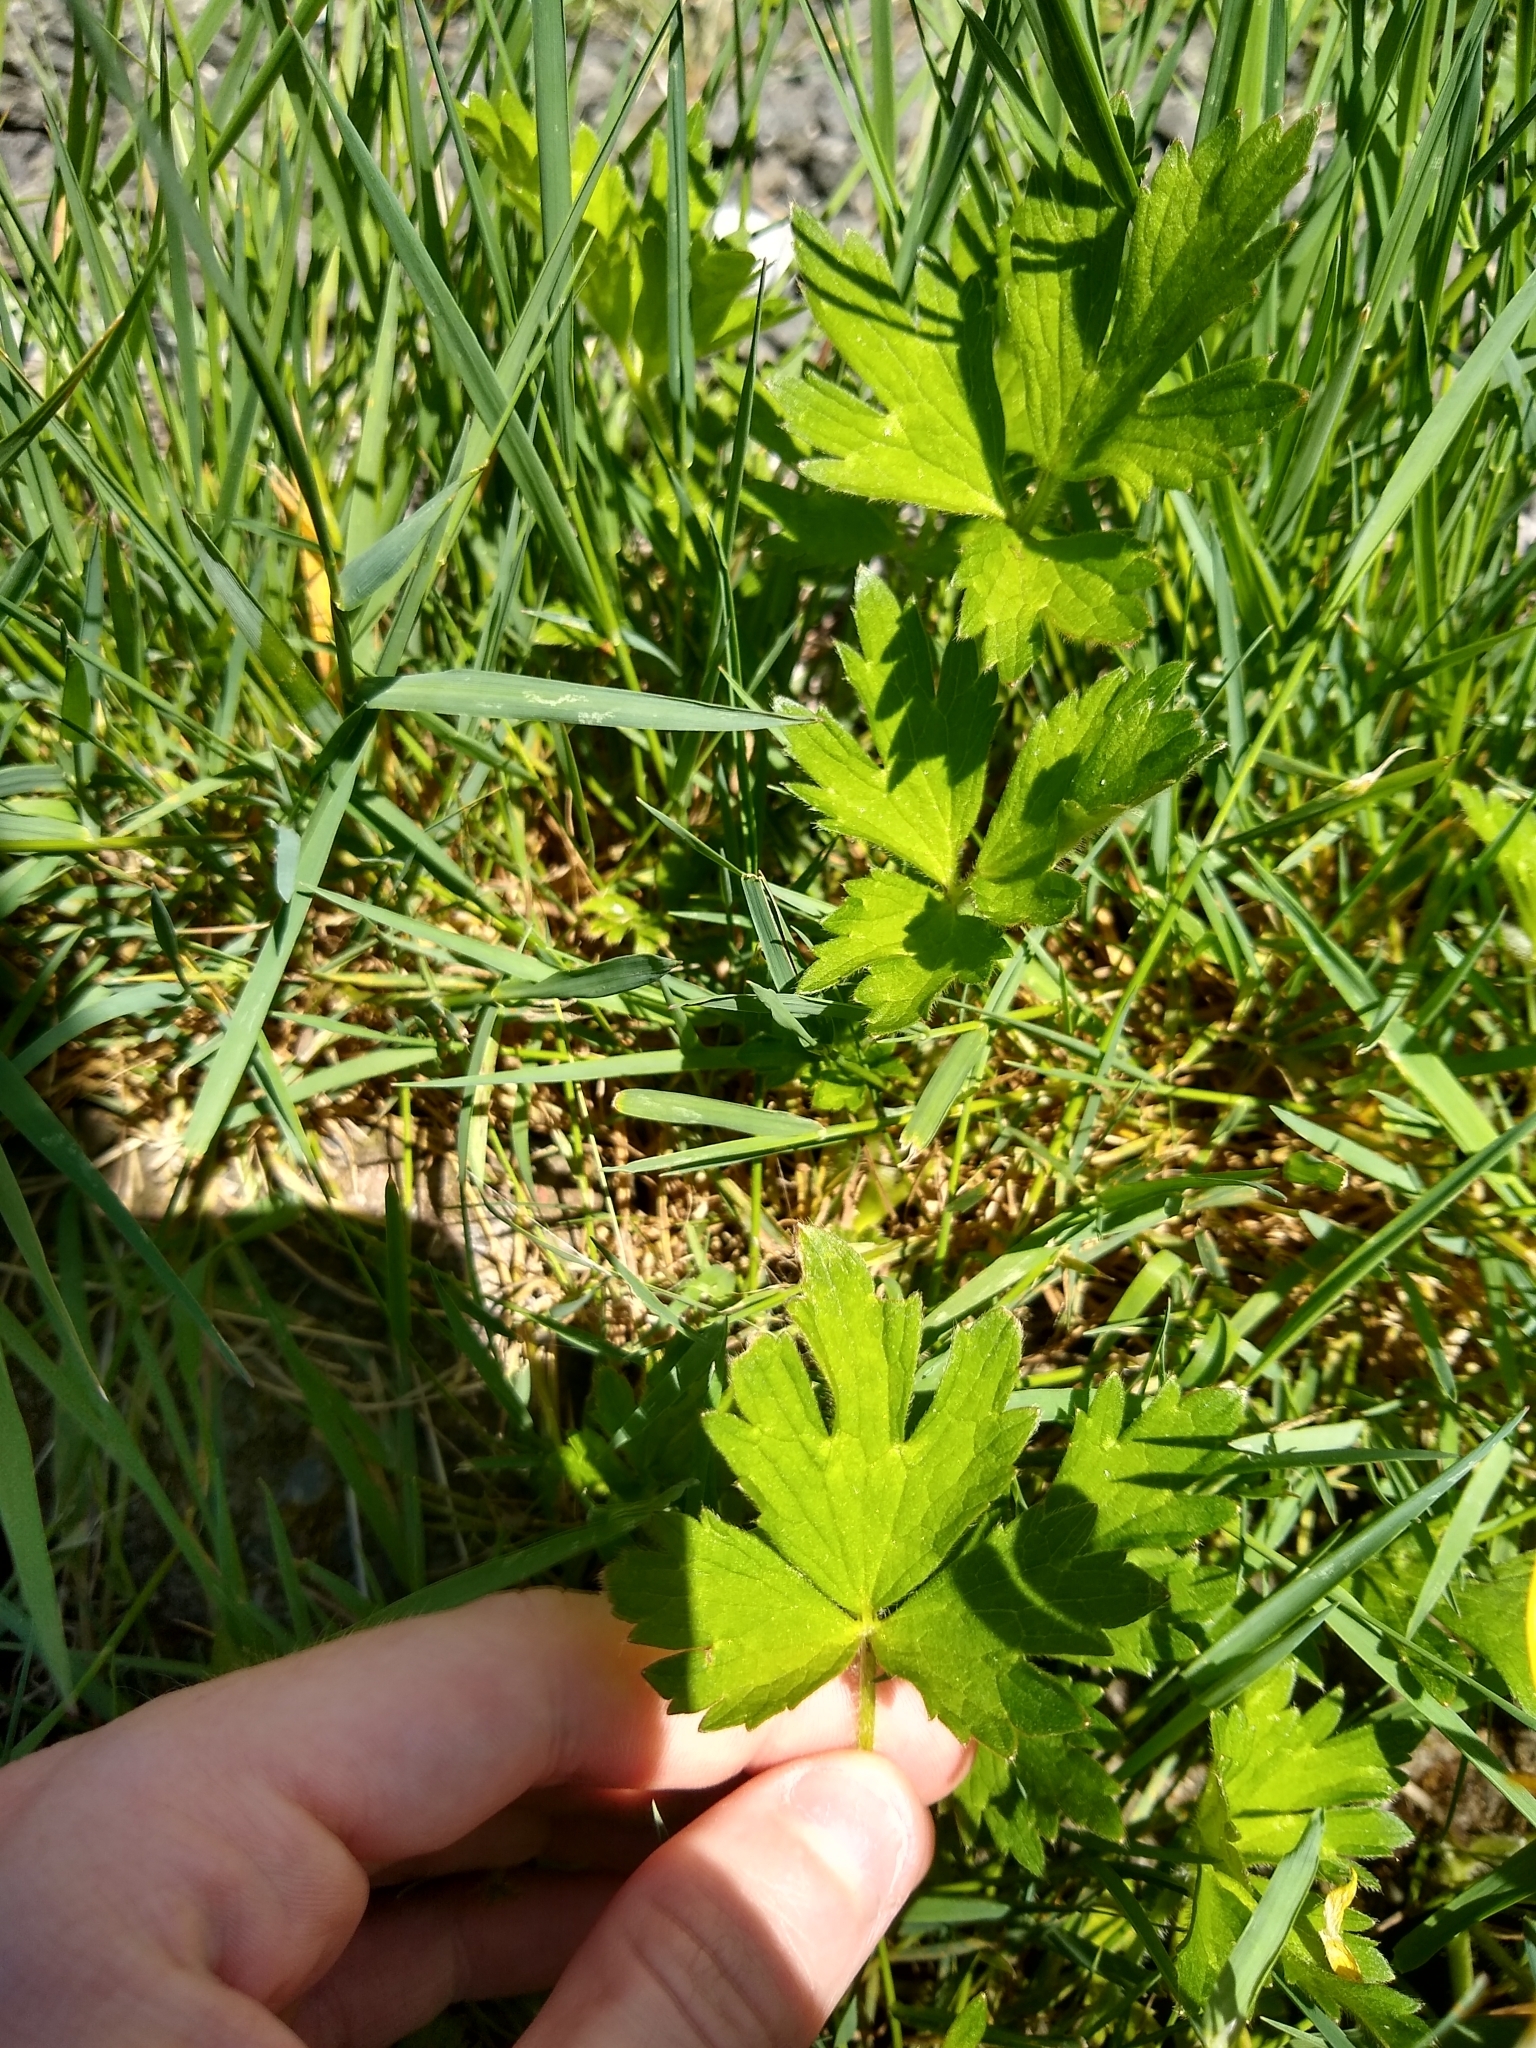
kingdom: Plantae
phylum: Tracheophyta
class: Magnoliopsida
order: Ranunculales
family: Ranunculaceae
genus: Ranunculus
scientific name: Ranunculus repens
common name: Creeping buttercup
